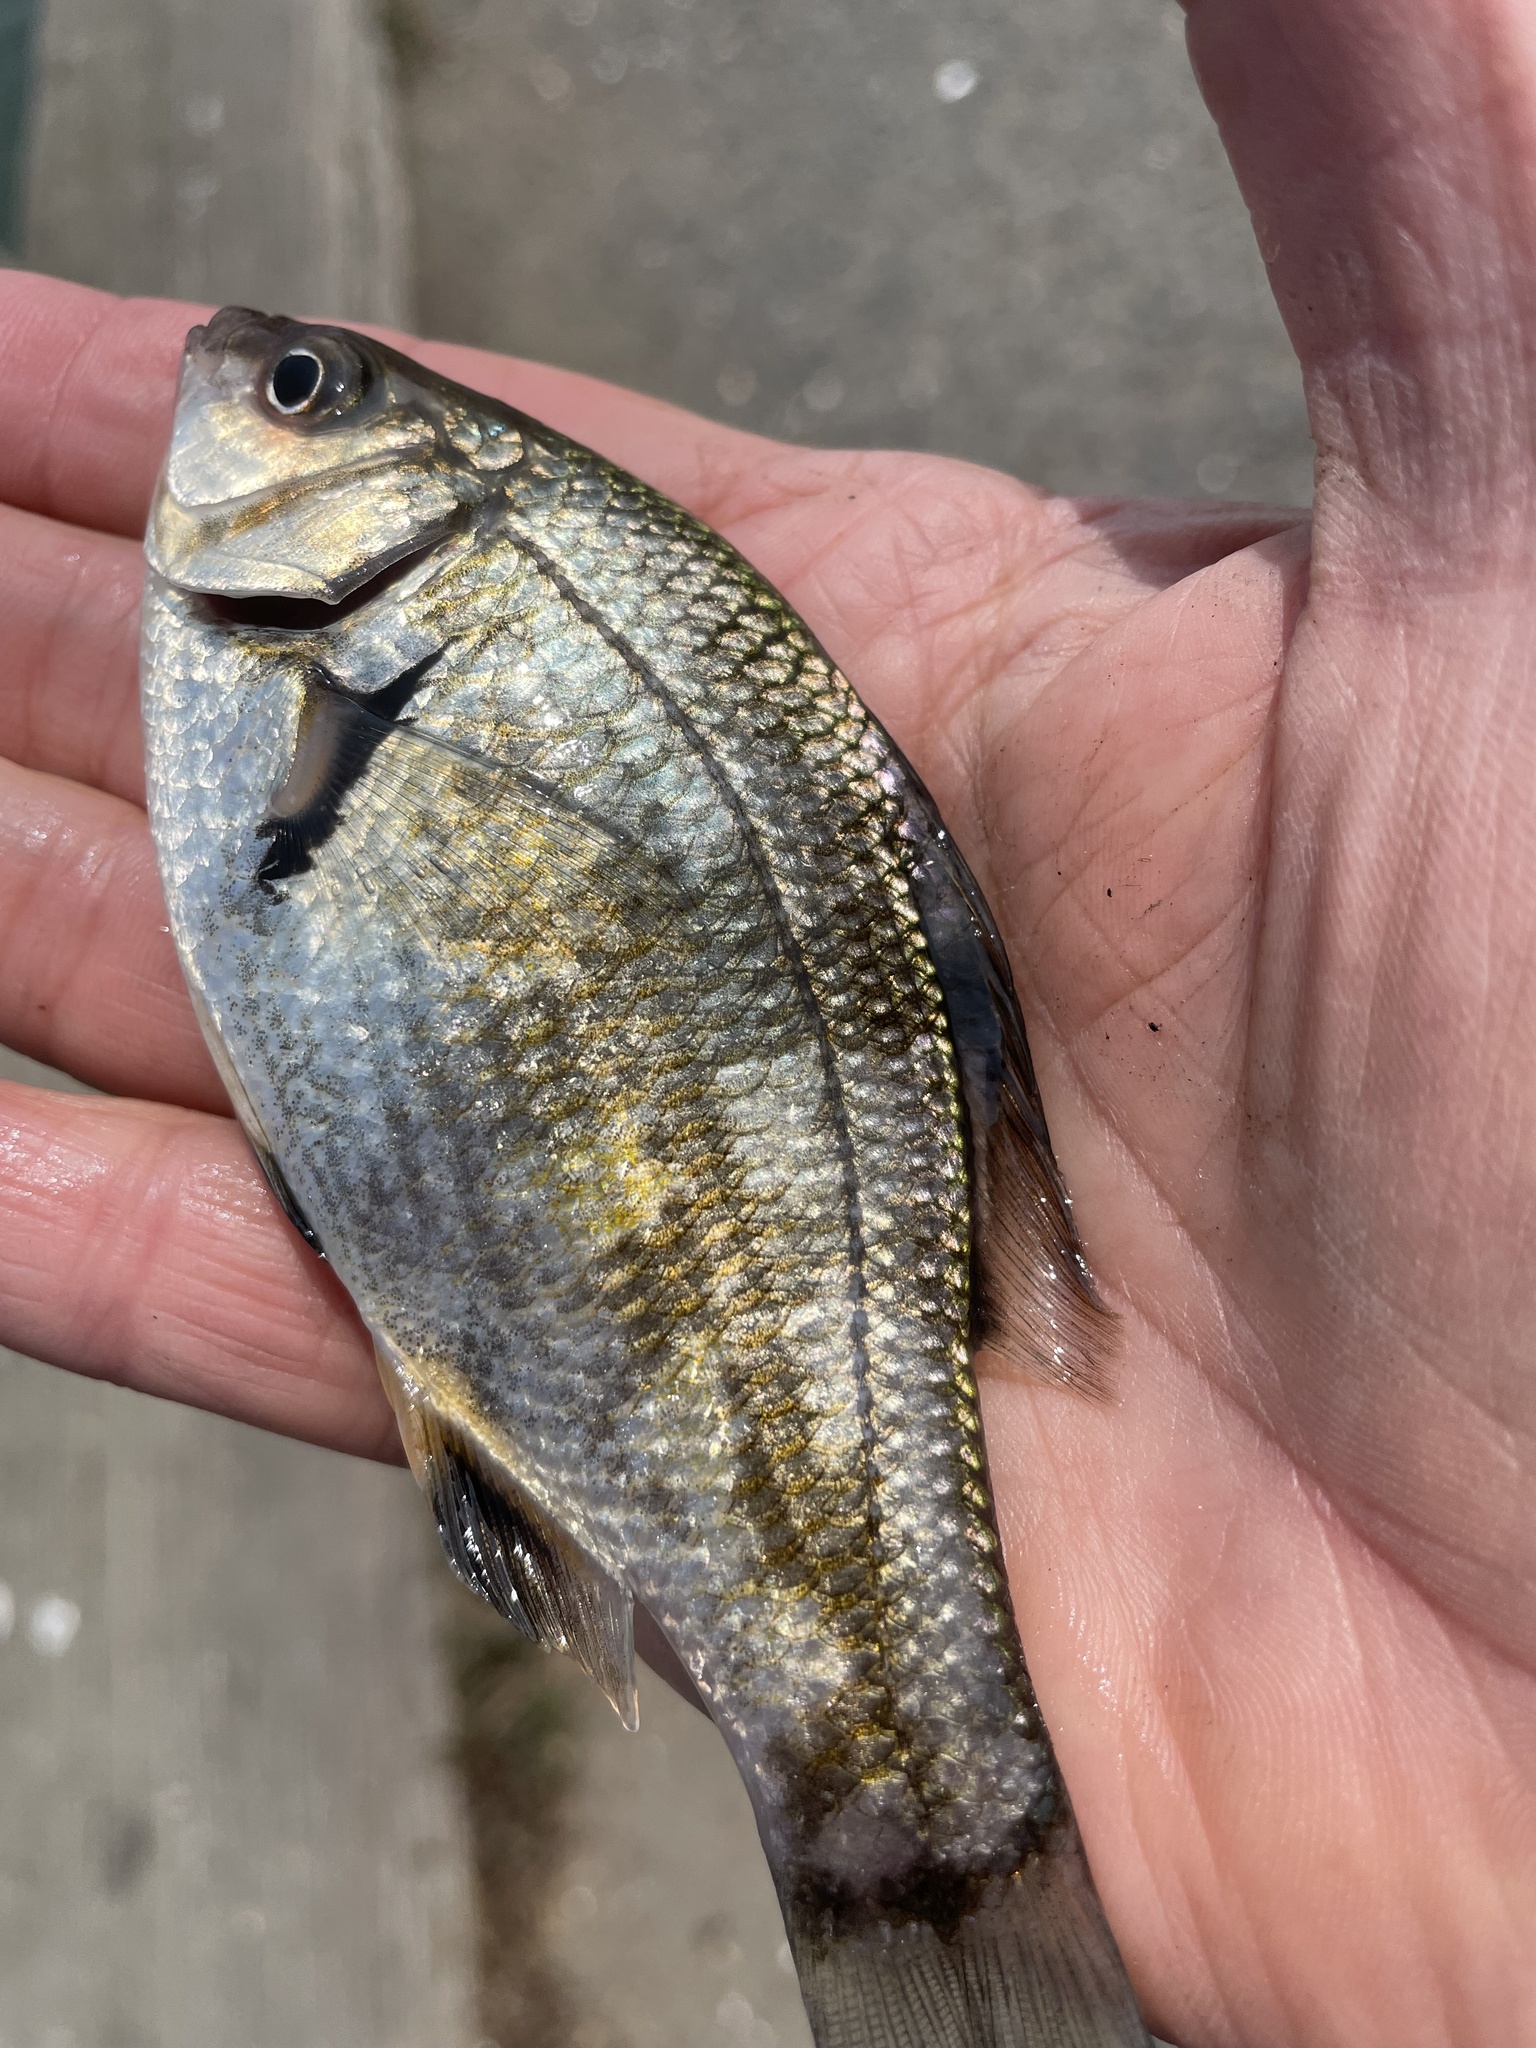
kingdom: Animalia
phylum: Chordata
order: Perciformes
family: Embiotocidae
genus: Micrometrus
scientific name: Micrometrus minimus
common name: Dwarf perch
